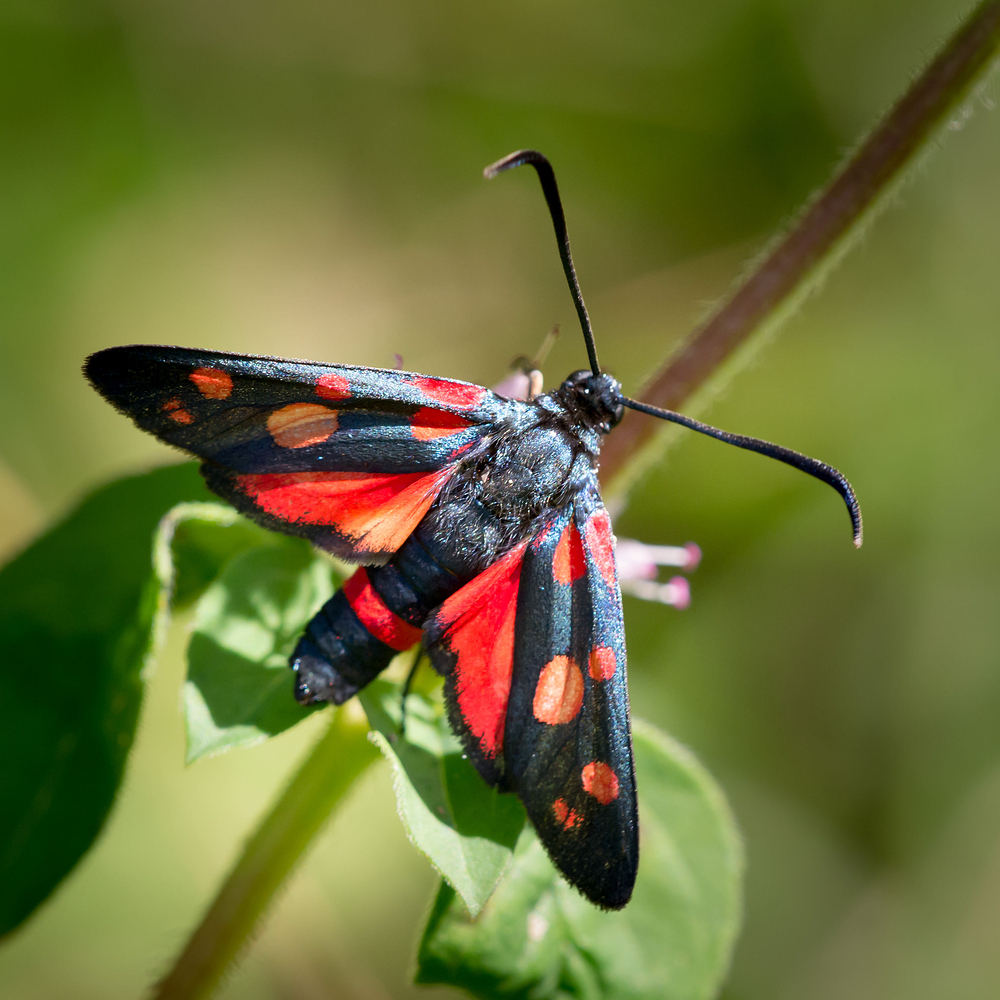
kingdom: Animalia
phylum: Arthropoda
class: Insecta
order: Lepidoptera
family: Zygaenidae
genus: Zygaena
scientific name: Zygaena ephialtes
